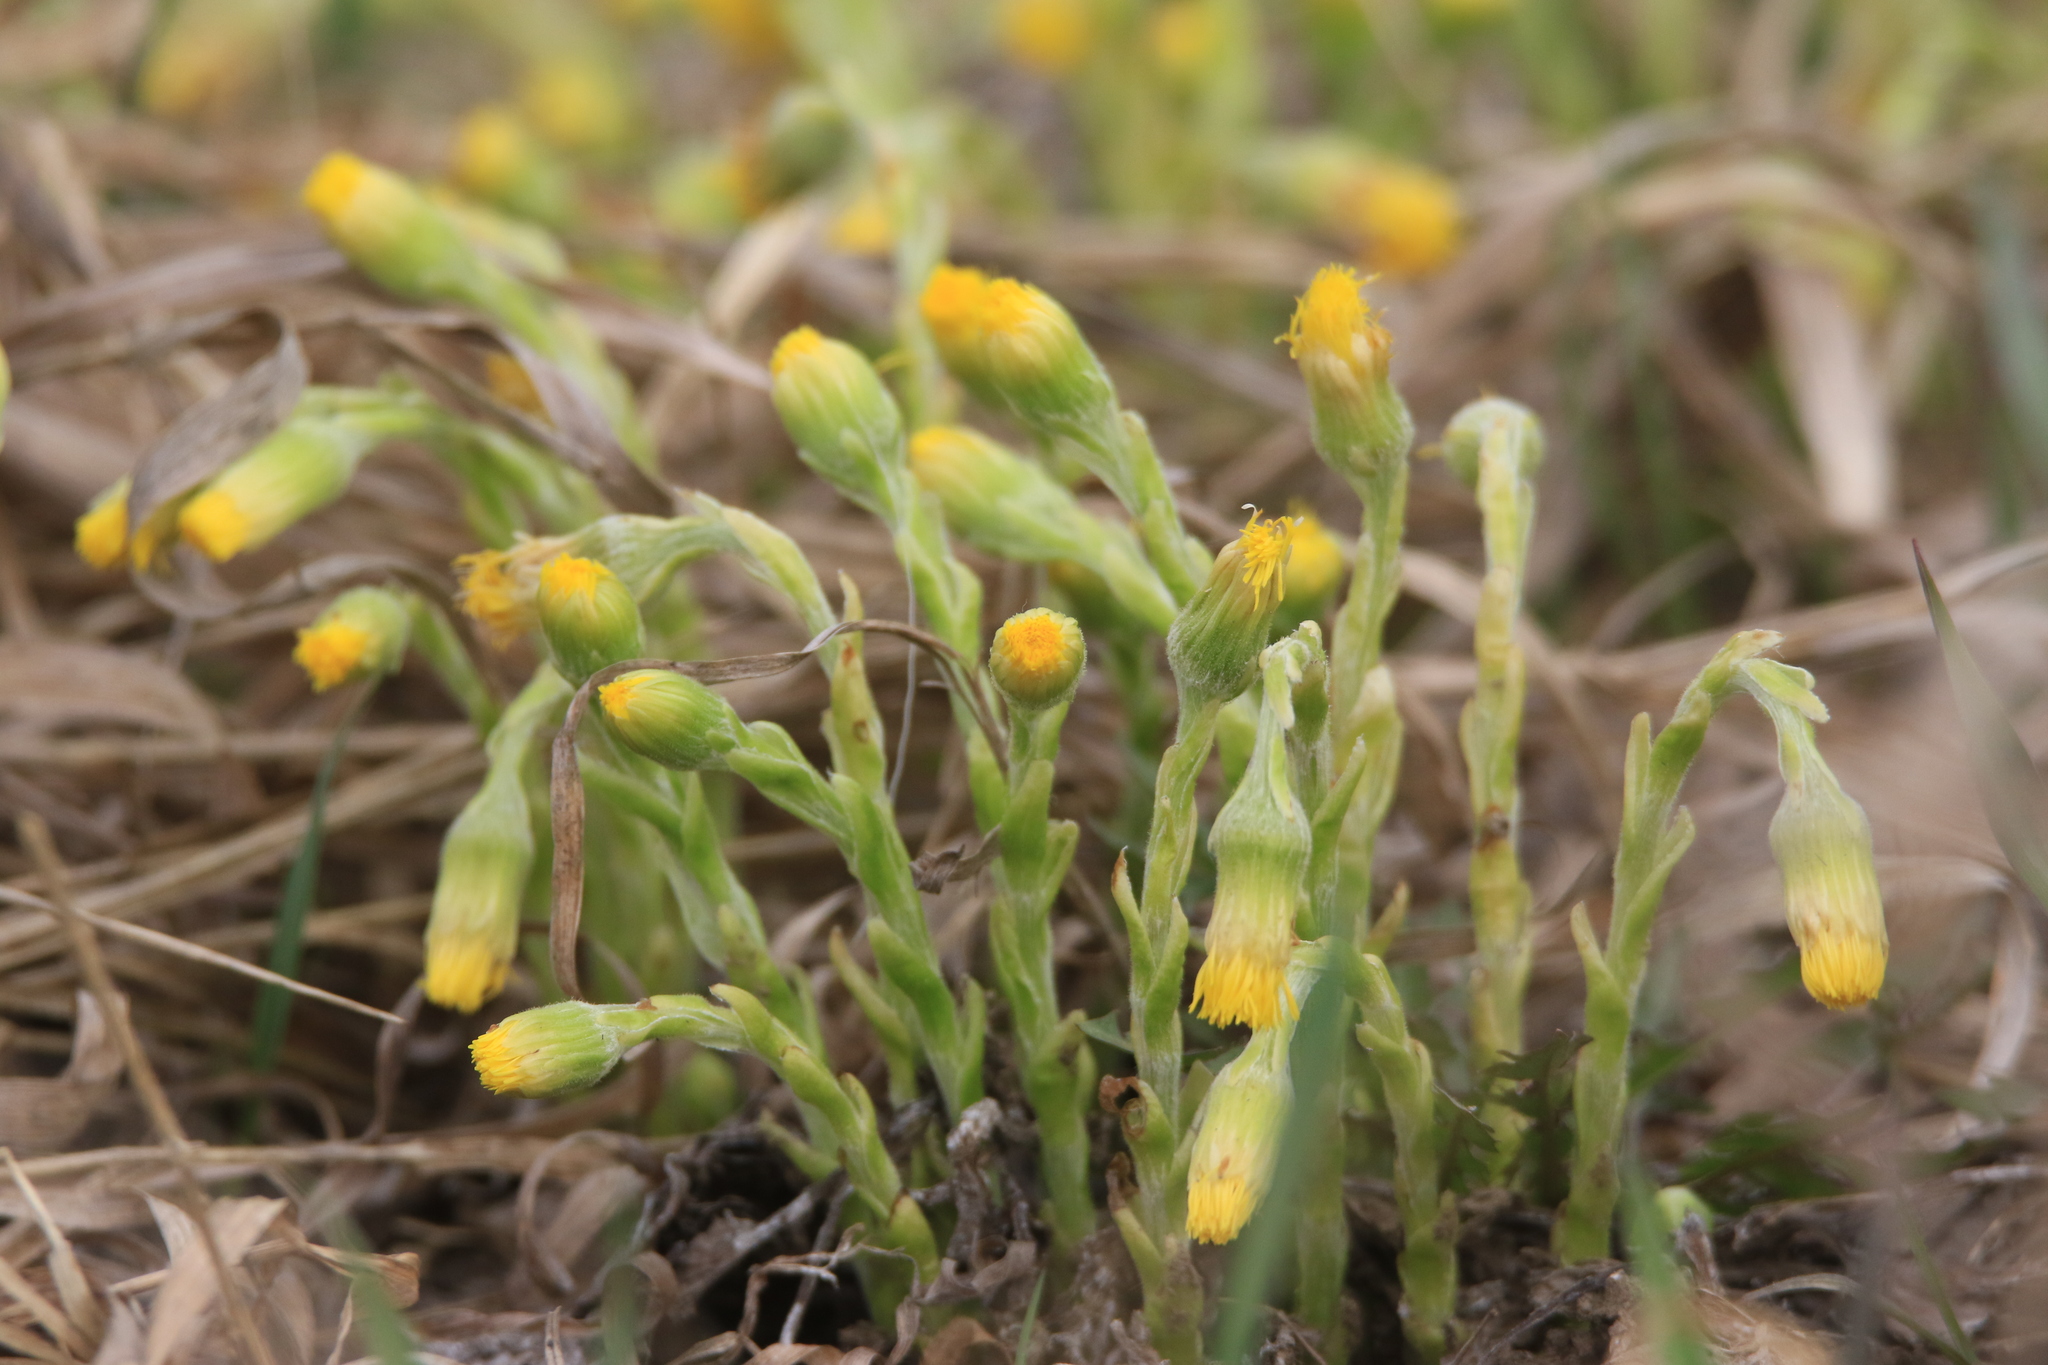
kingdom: Plantae
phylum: Tracheophyta
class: Magnoliopsida
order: Asterales
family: Asteraceae
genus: Tussilago
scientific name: Tussilago farfara
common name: Coltsfoot
